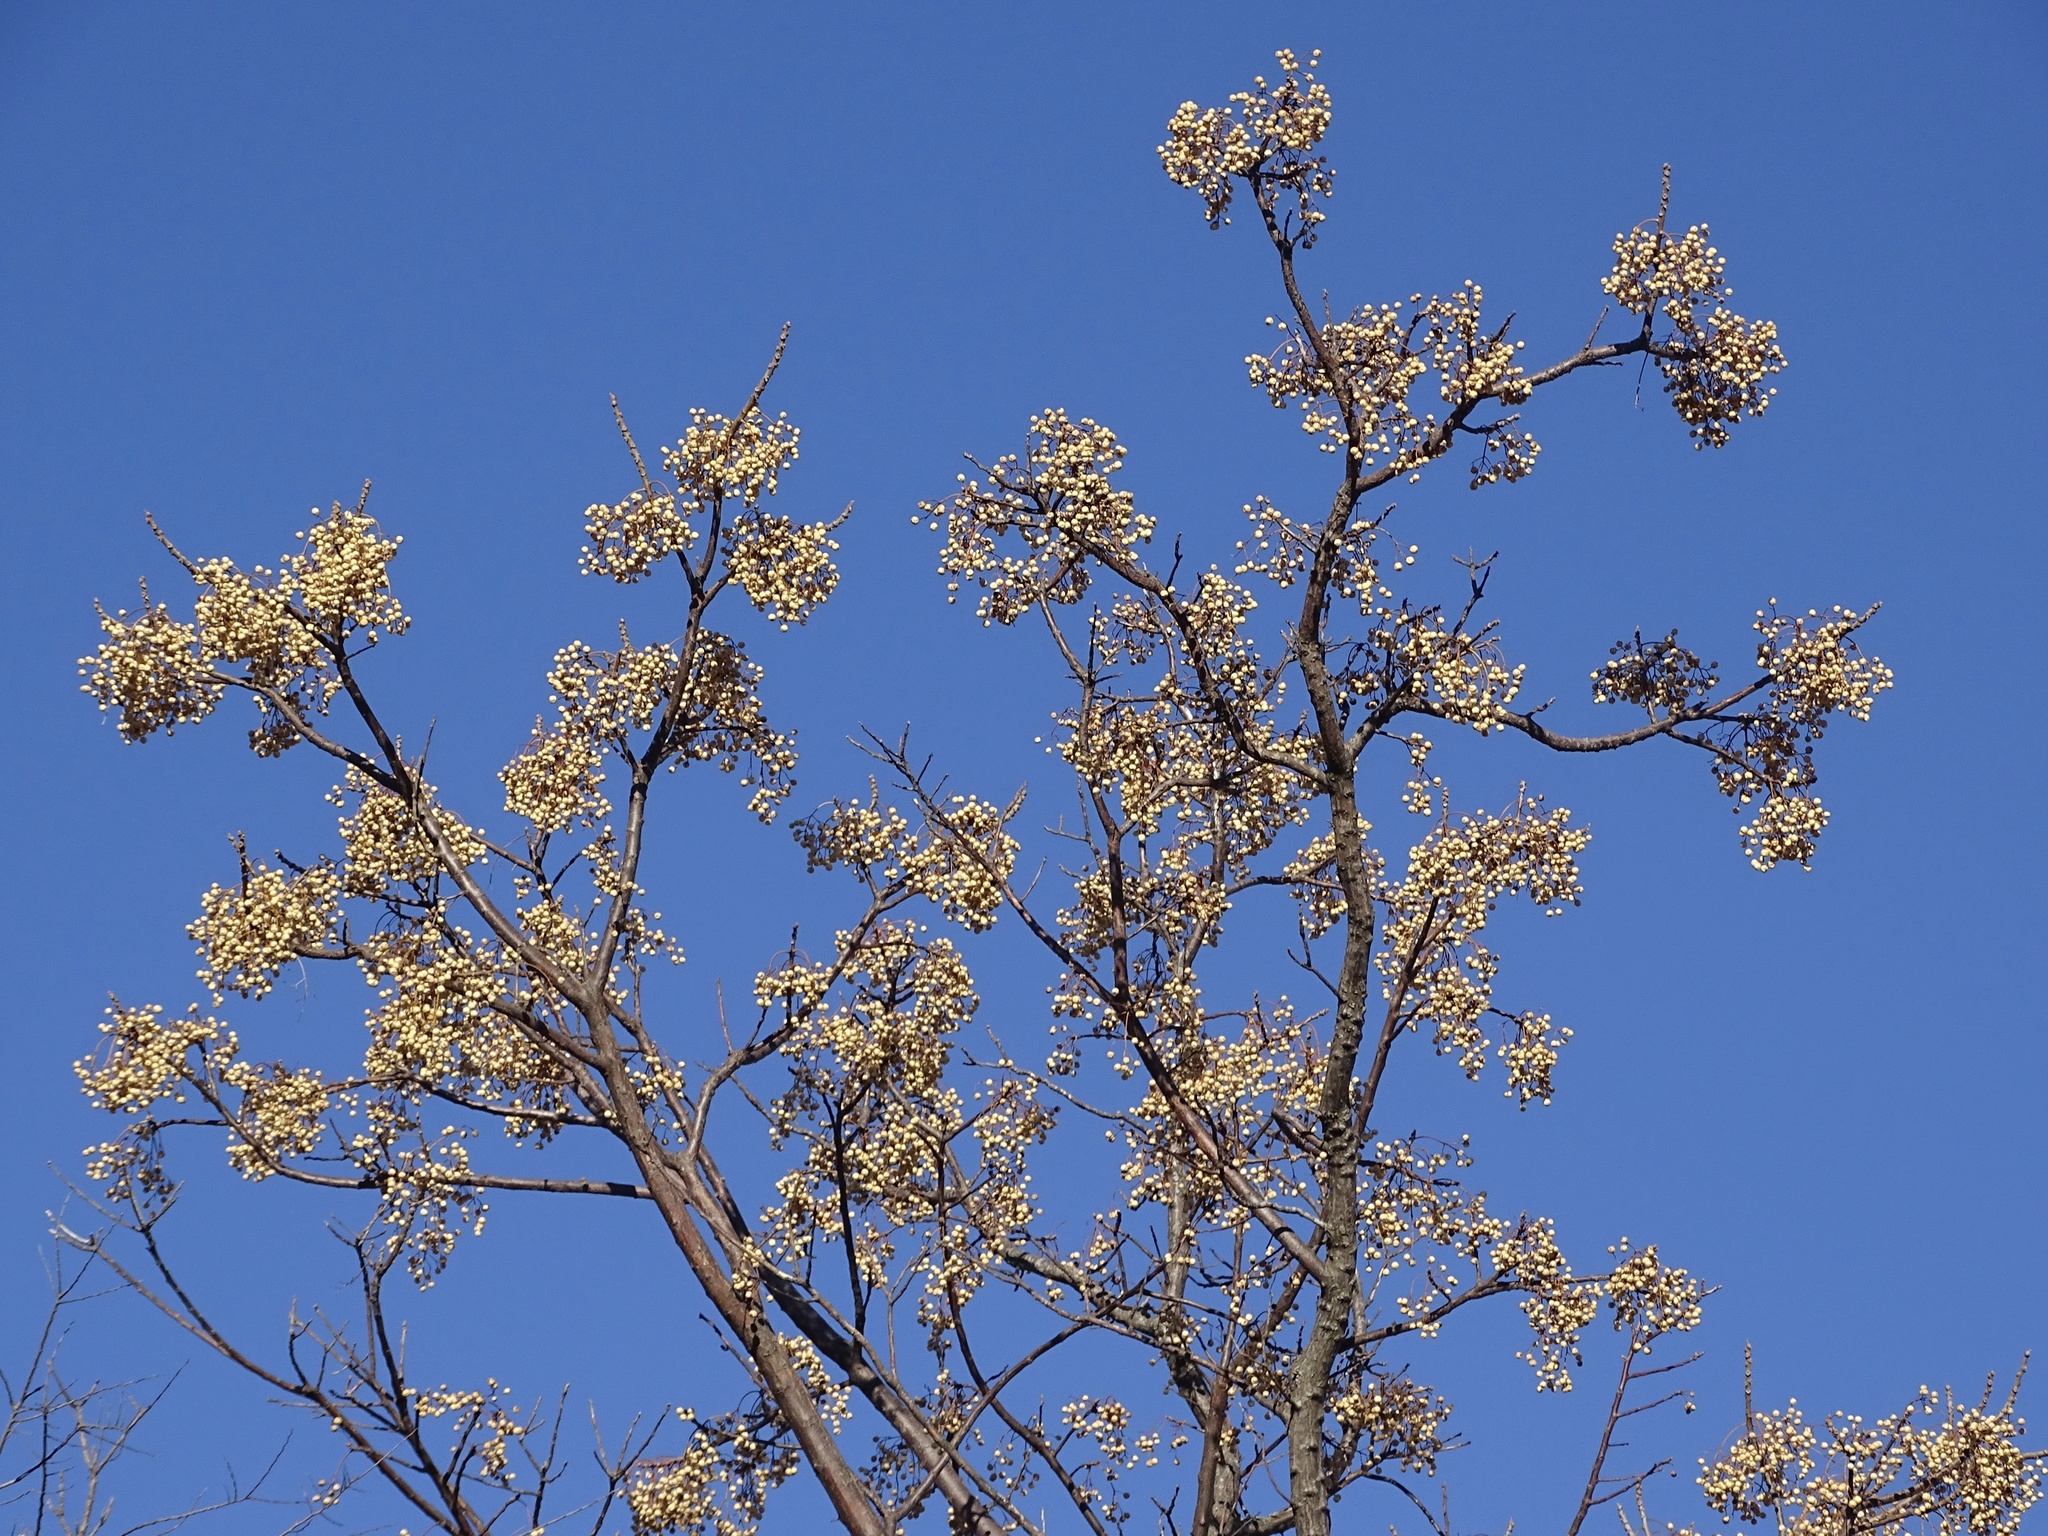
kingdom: Plantae
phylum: Tracheophyta
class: Magnoliopsida
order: Sapindales
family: Meliaceae
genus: Melia
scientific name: Melia azedarach
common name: Chinaberrytree
